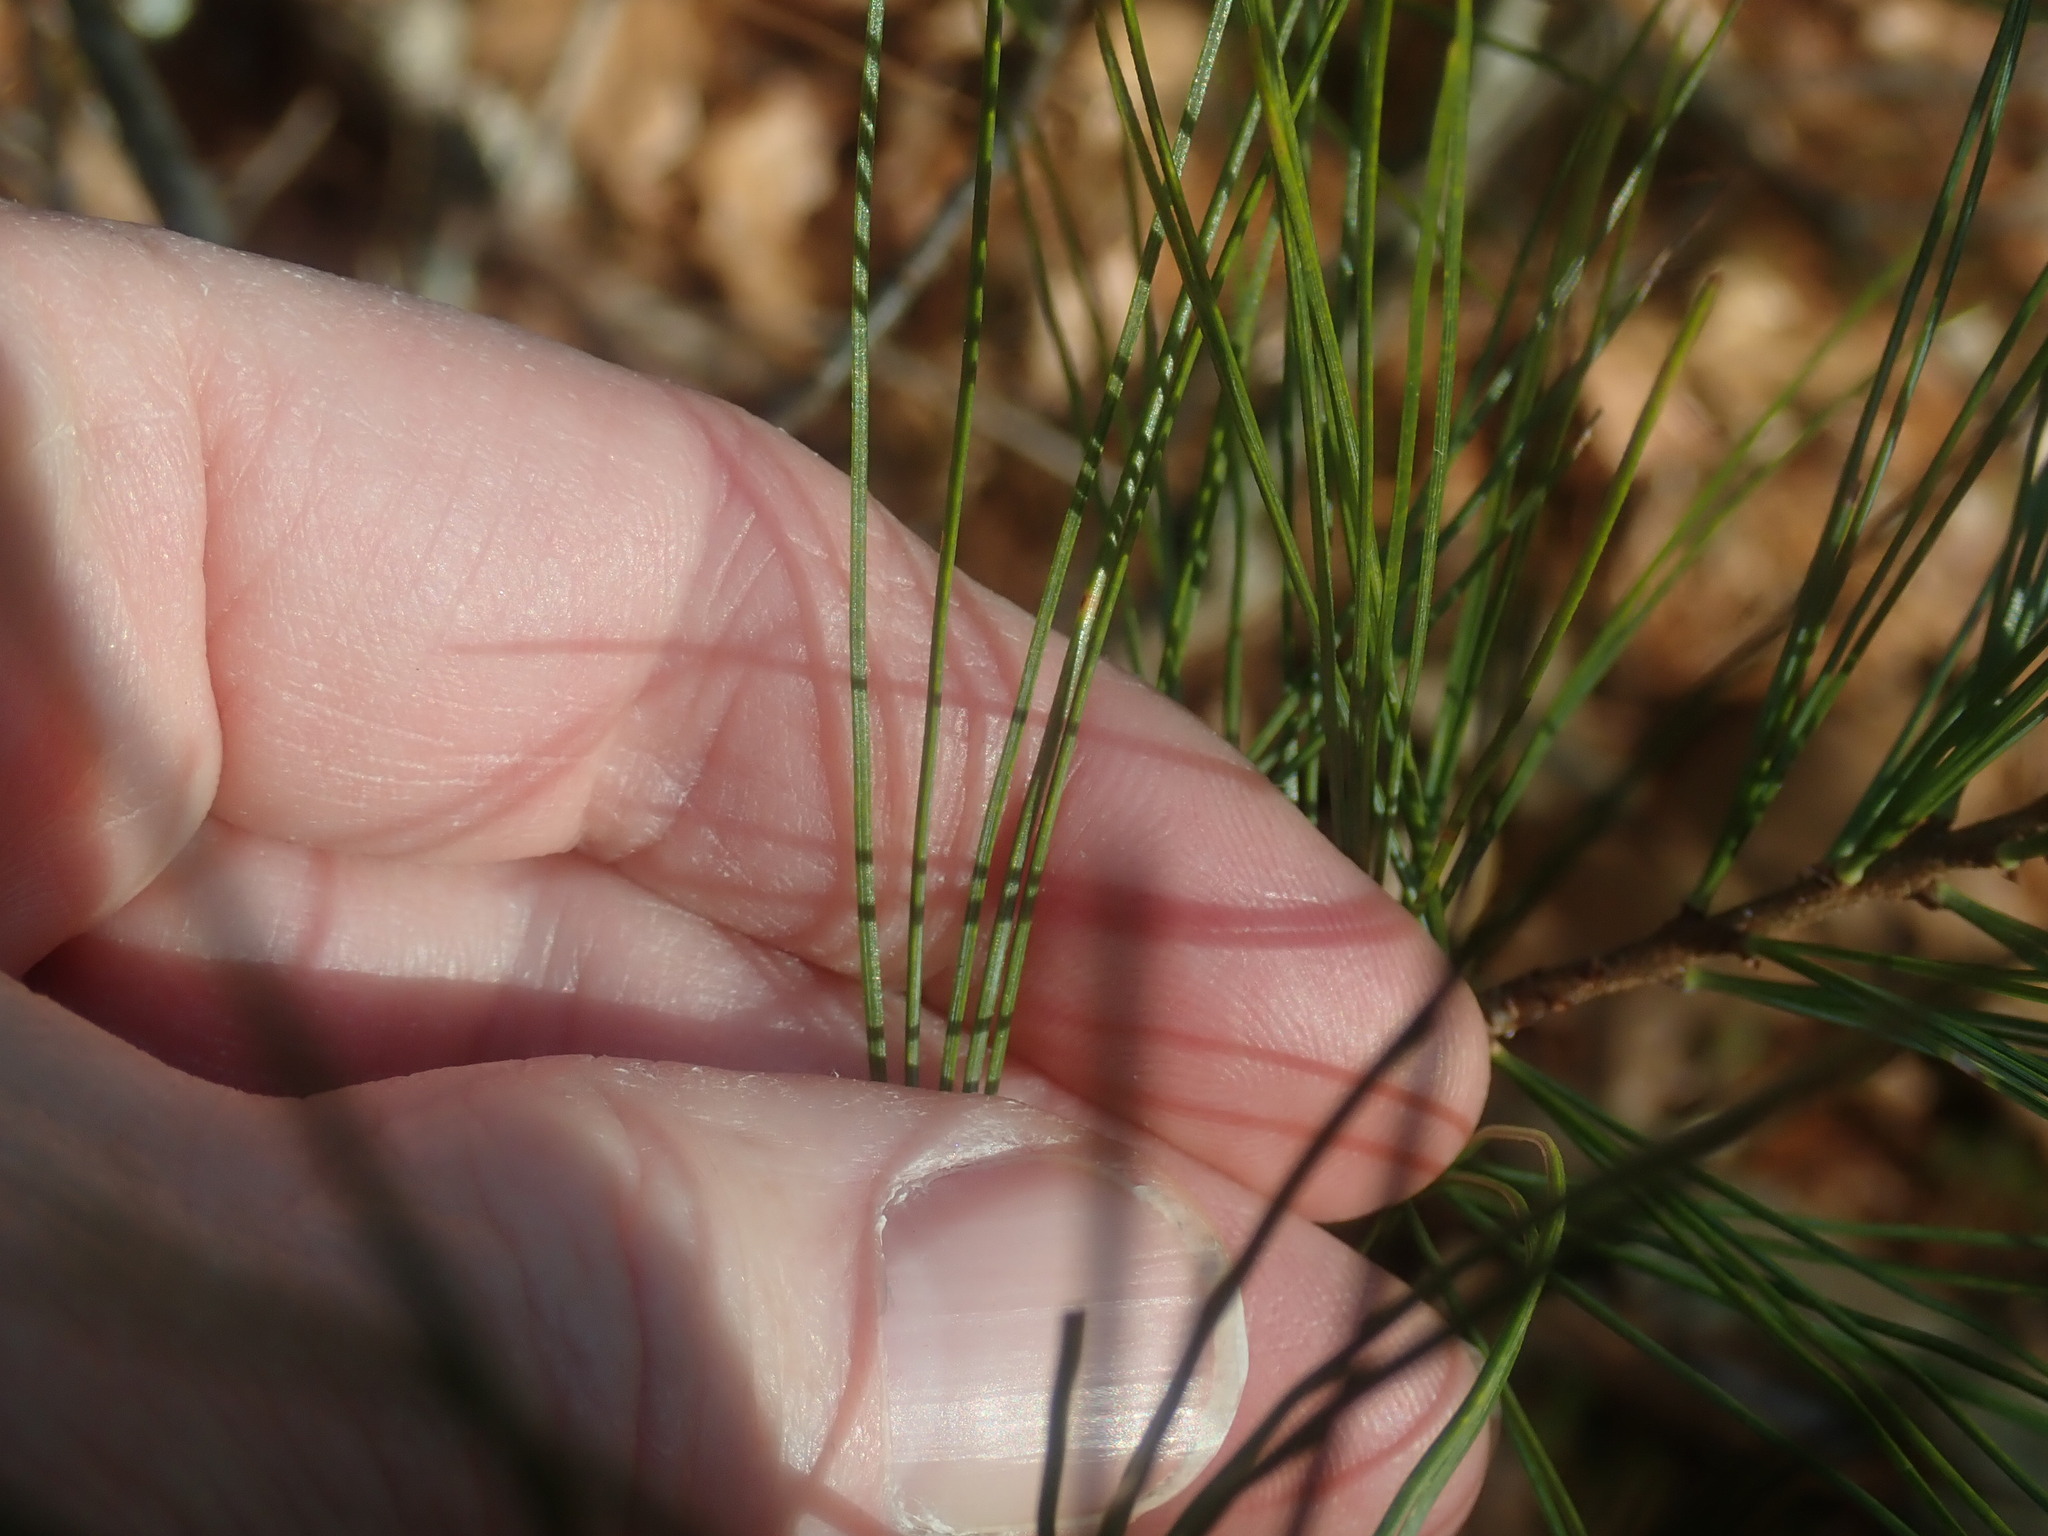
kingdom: Plantae
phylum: Tracheophyta
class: Pinopsida
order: Pinales
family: Pinaceae
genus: Pinus
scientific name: Pinus strobus
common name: Weymouth pine
